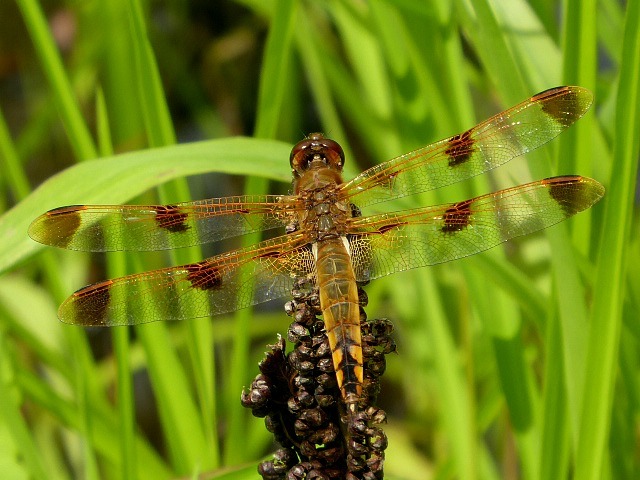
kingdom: Animalia
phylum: Arthropoda
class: Insecta
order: Odonata
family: Libellulidae
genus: Libellula
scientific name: Libellula semifasciata
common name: Painted skimmer
